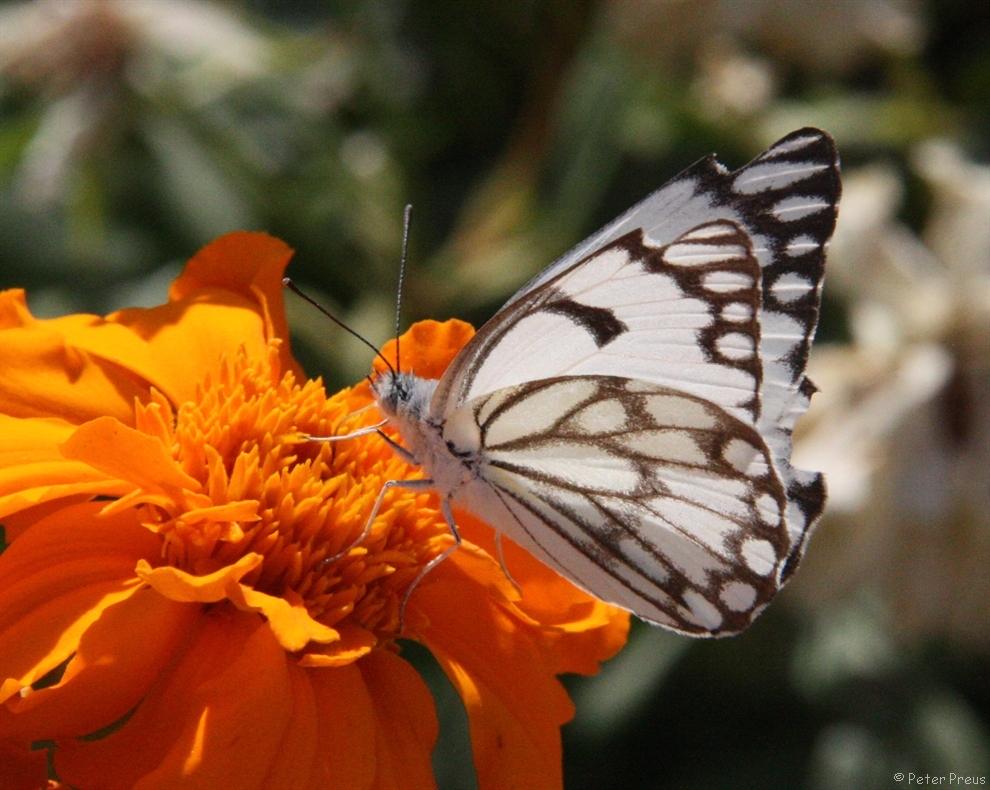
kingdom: Animalia
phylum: Arthropoda
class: Insecta
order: Lepidoptera
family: Pieridae
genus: Belenois
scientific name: Belenois aurota
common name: Brown-veined white
